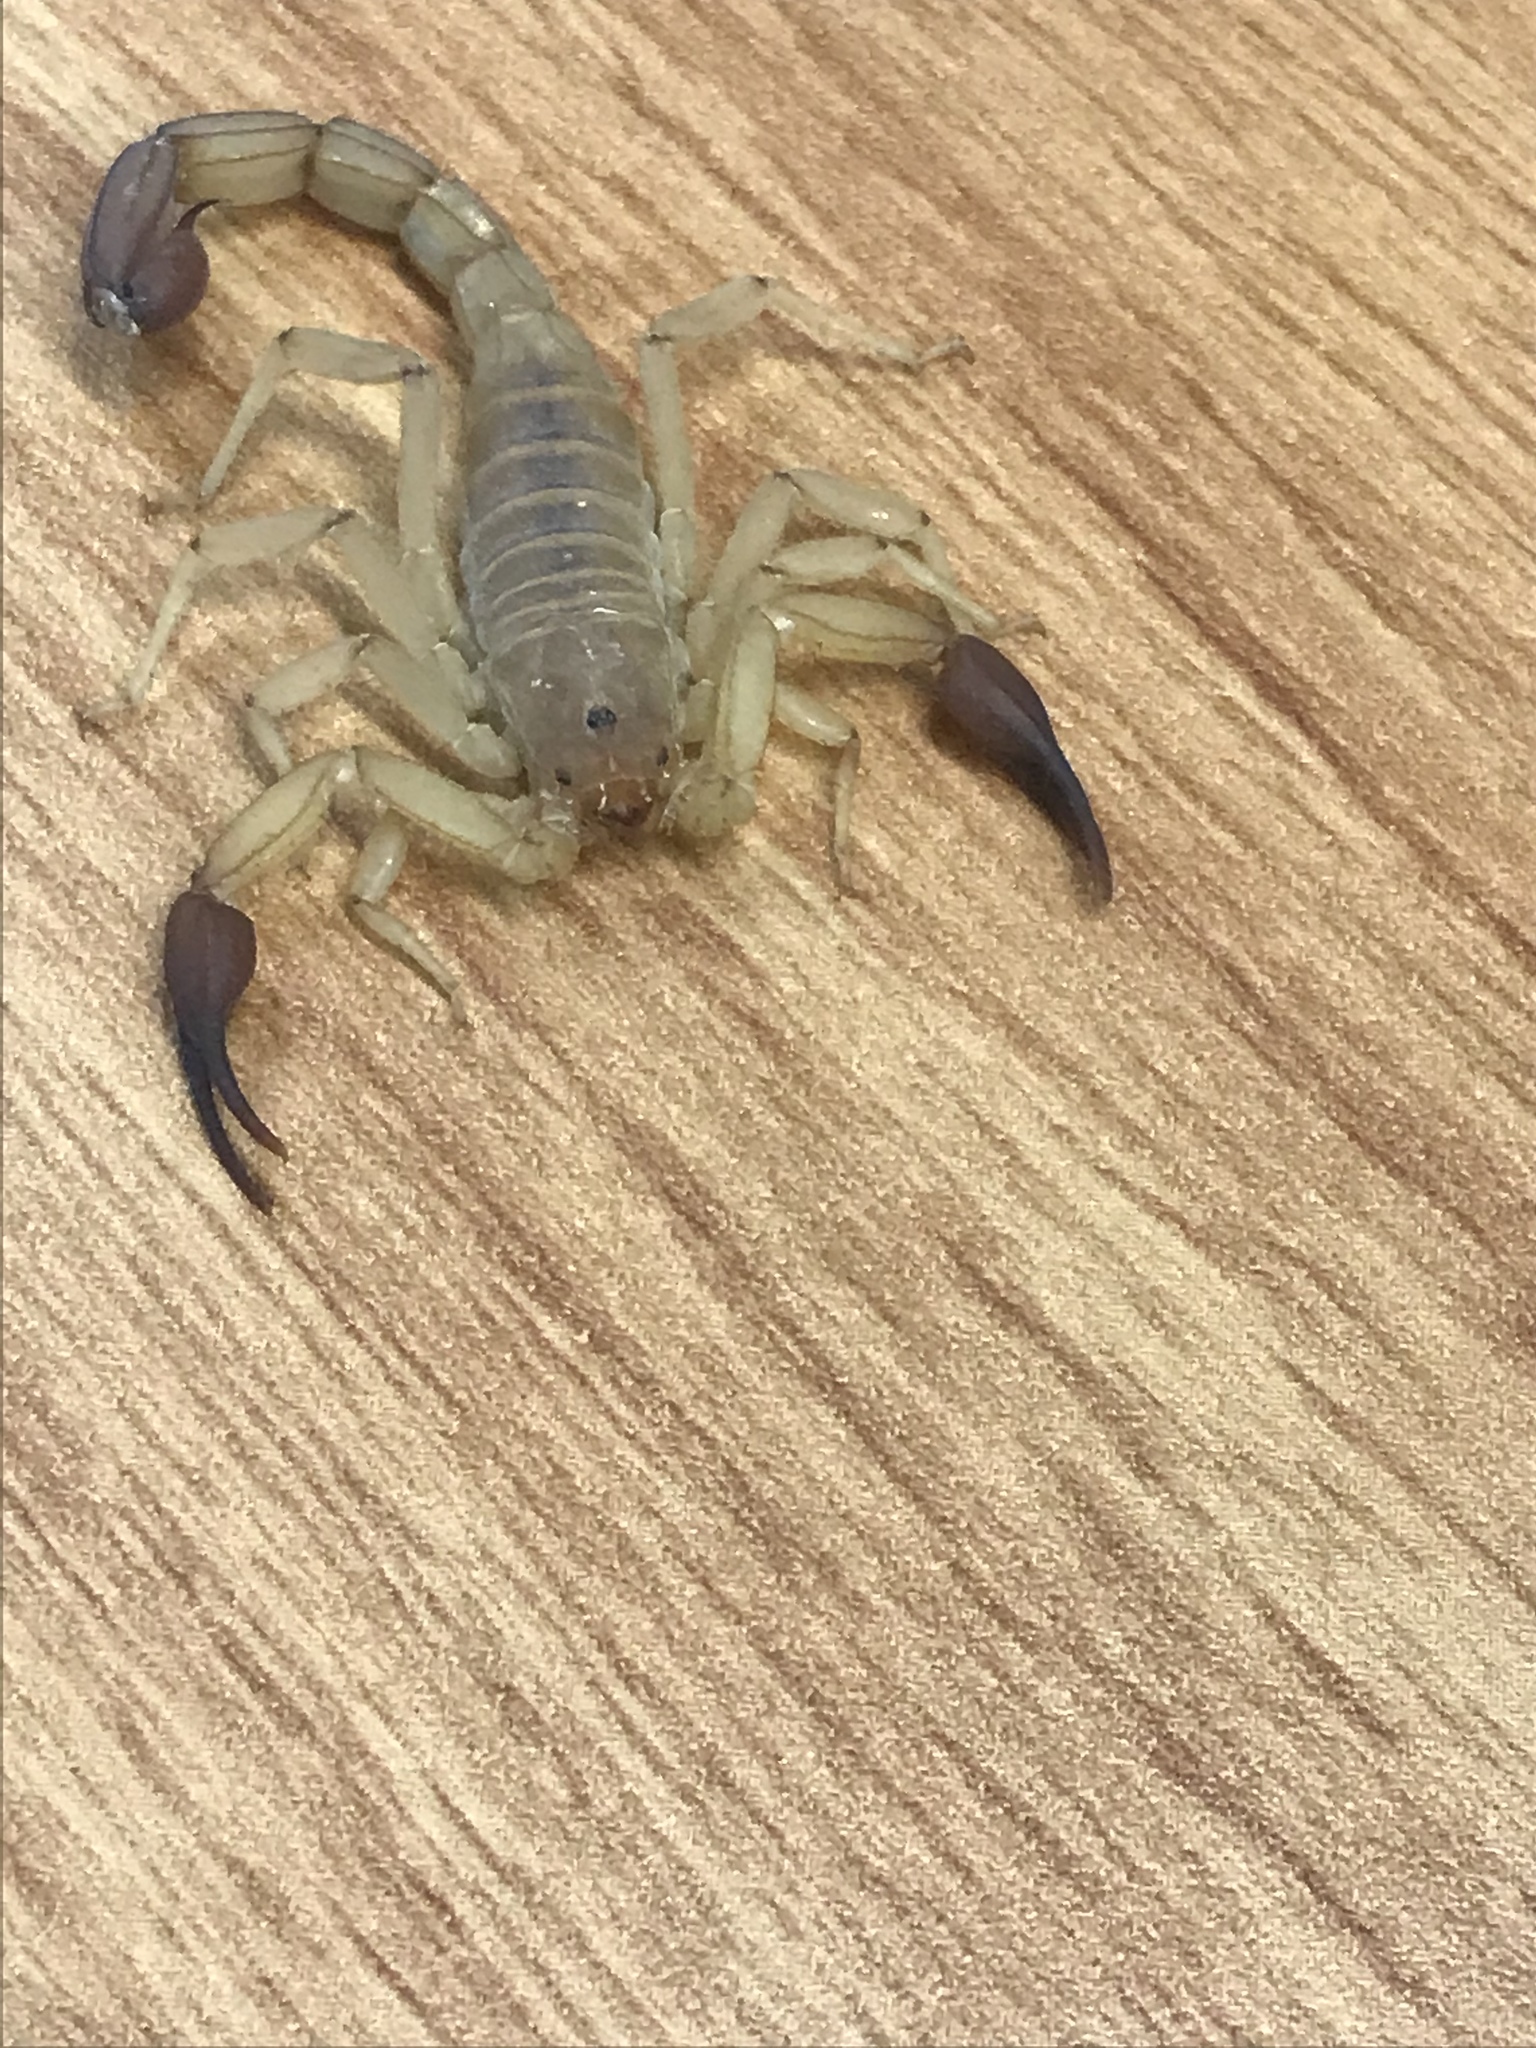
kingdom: Animalia
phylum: Arthropoda
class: Arachnida
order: Scorpiones
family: Vaejovidae
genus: Franckeus
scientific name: Franckeus rubrimanus
